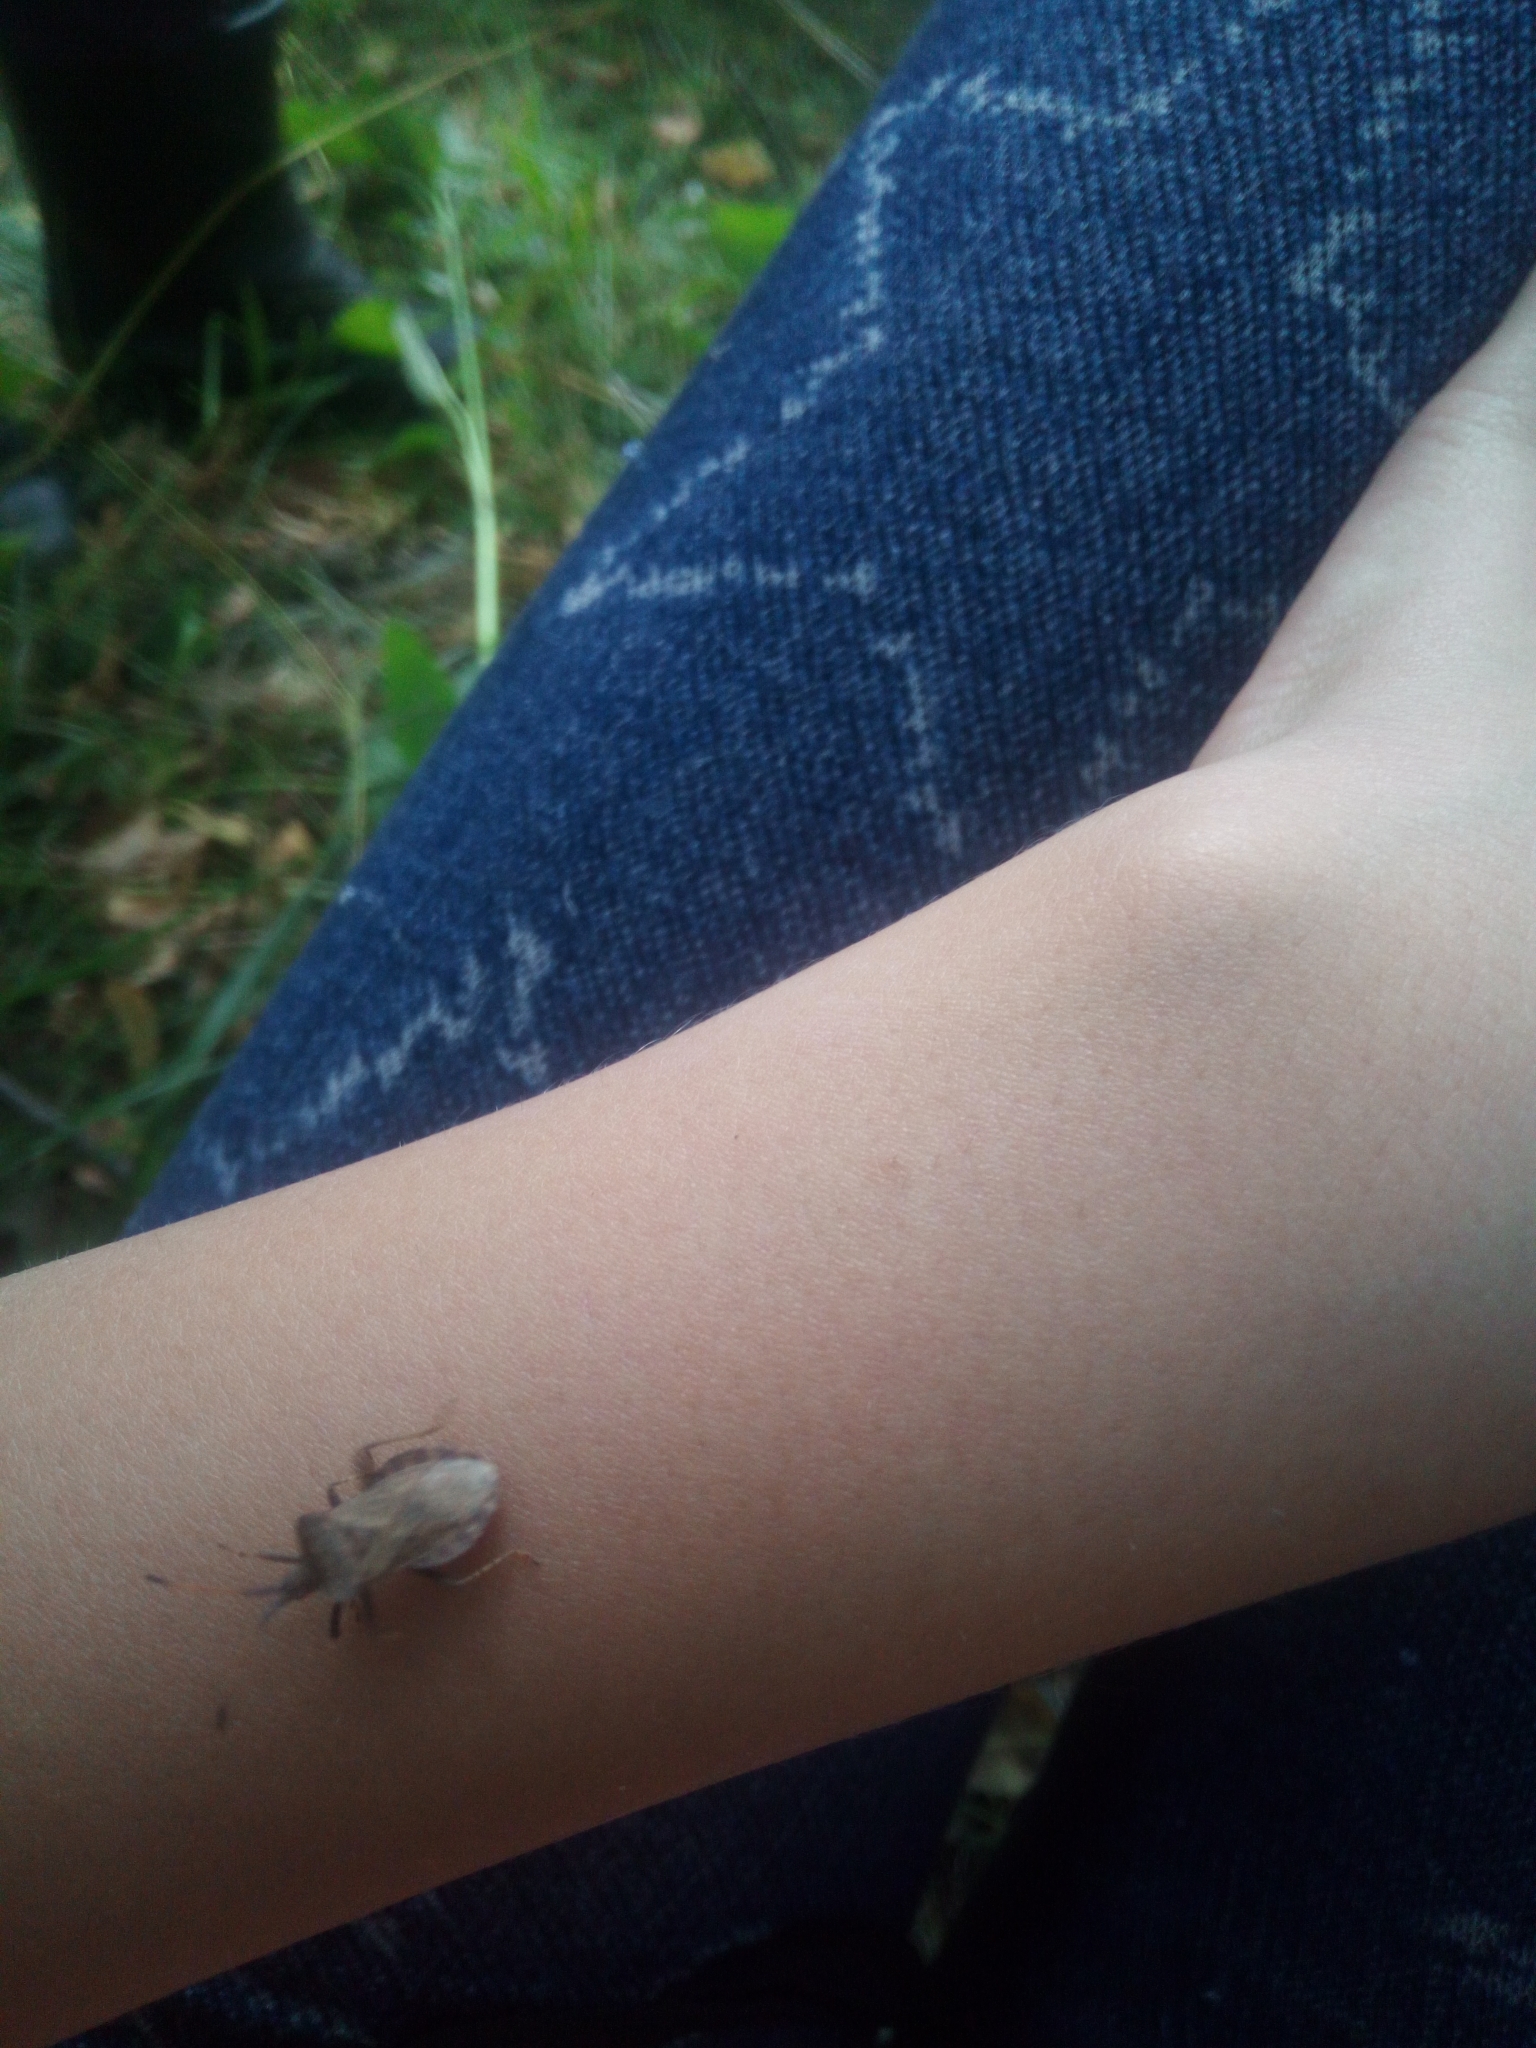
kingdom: Animalia
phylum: Arthropoda
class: Insecta
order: Hemiptera
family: Coreidae
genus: Coreus
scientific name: Coreus marginatus
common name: Dock bug
